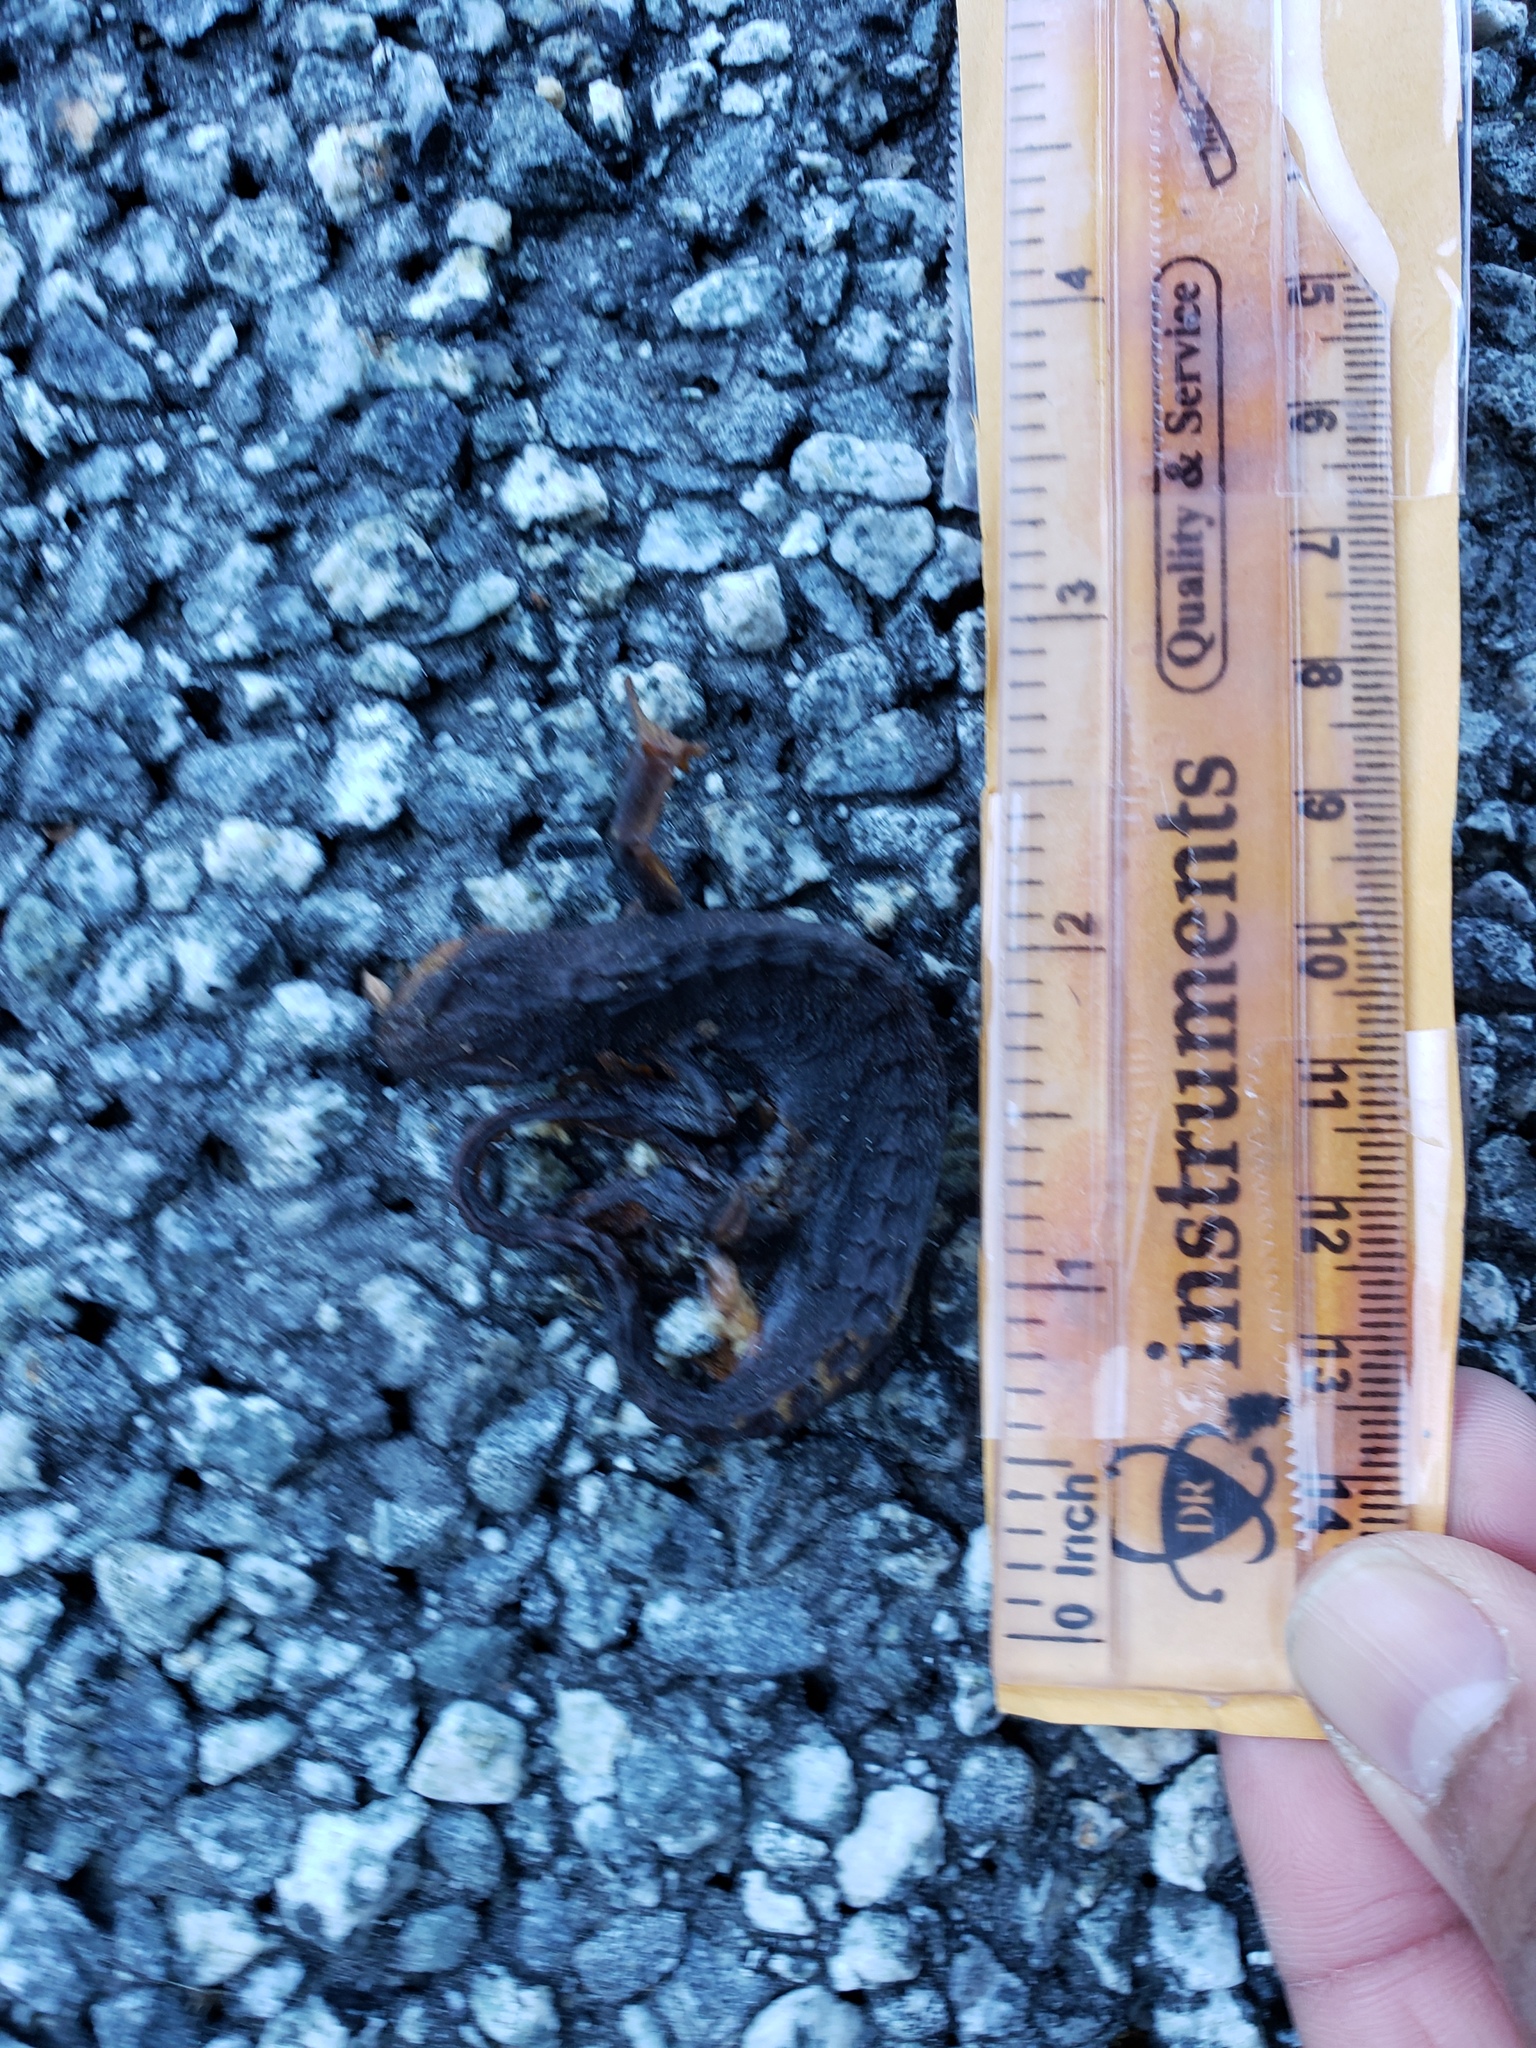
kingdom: Animalia
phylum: Chordata
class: Amphibia
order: Caudata
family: Salamandridae
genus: Taricha
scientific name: Taricha
